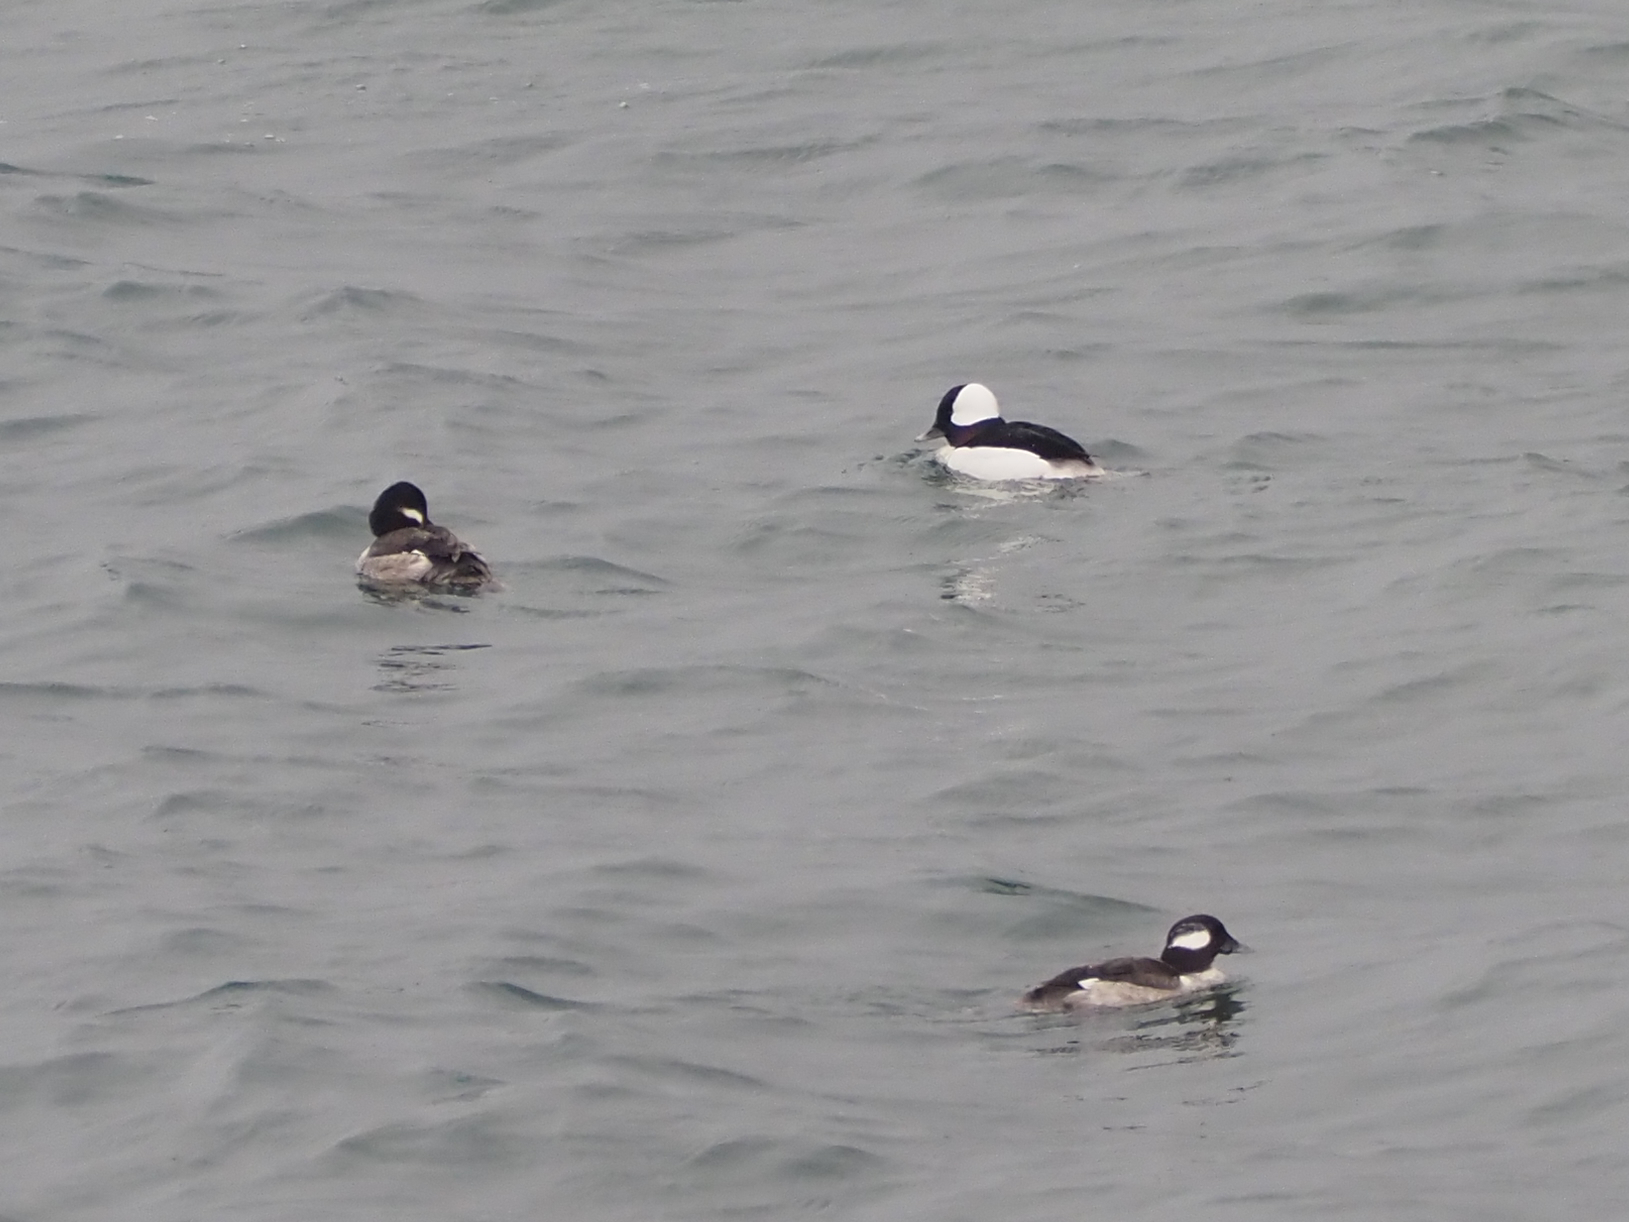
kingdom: Animalia
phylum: Chordata
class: Aves
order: Anseriformes
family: Anatidae
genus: Bucephala
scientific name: Bucephala albeola
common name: Bufflehead
